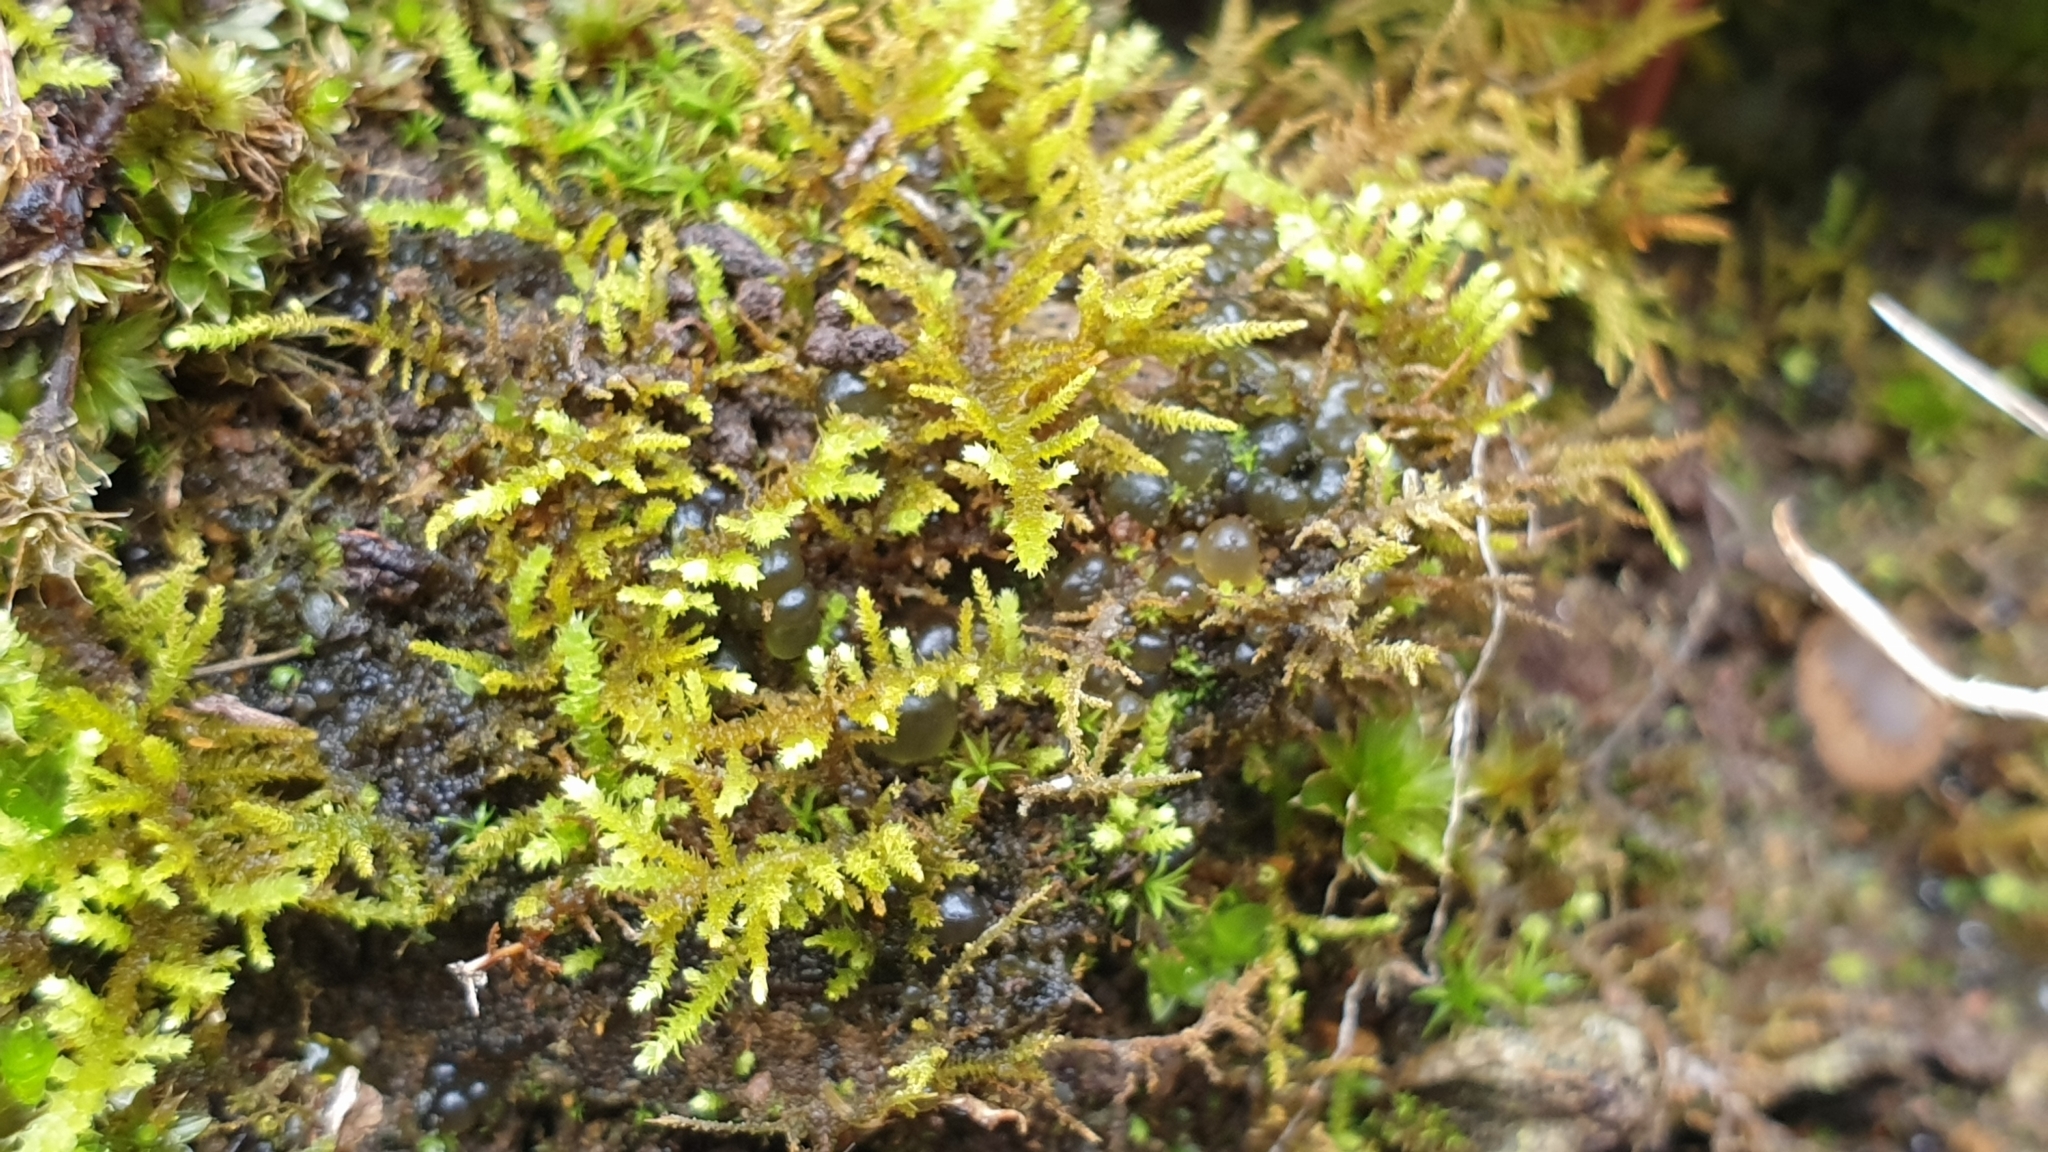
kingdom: Plantae
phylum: Bryophyta
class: Bryopsida
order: Hypnales
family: Thuidiaceae
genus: Thuidiopsis
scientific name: Thuidiopsis sparsa
